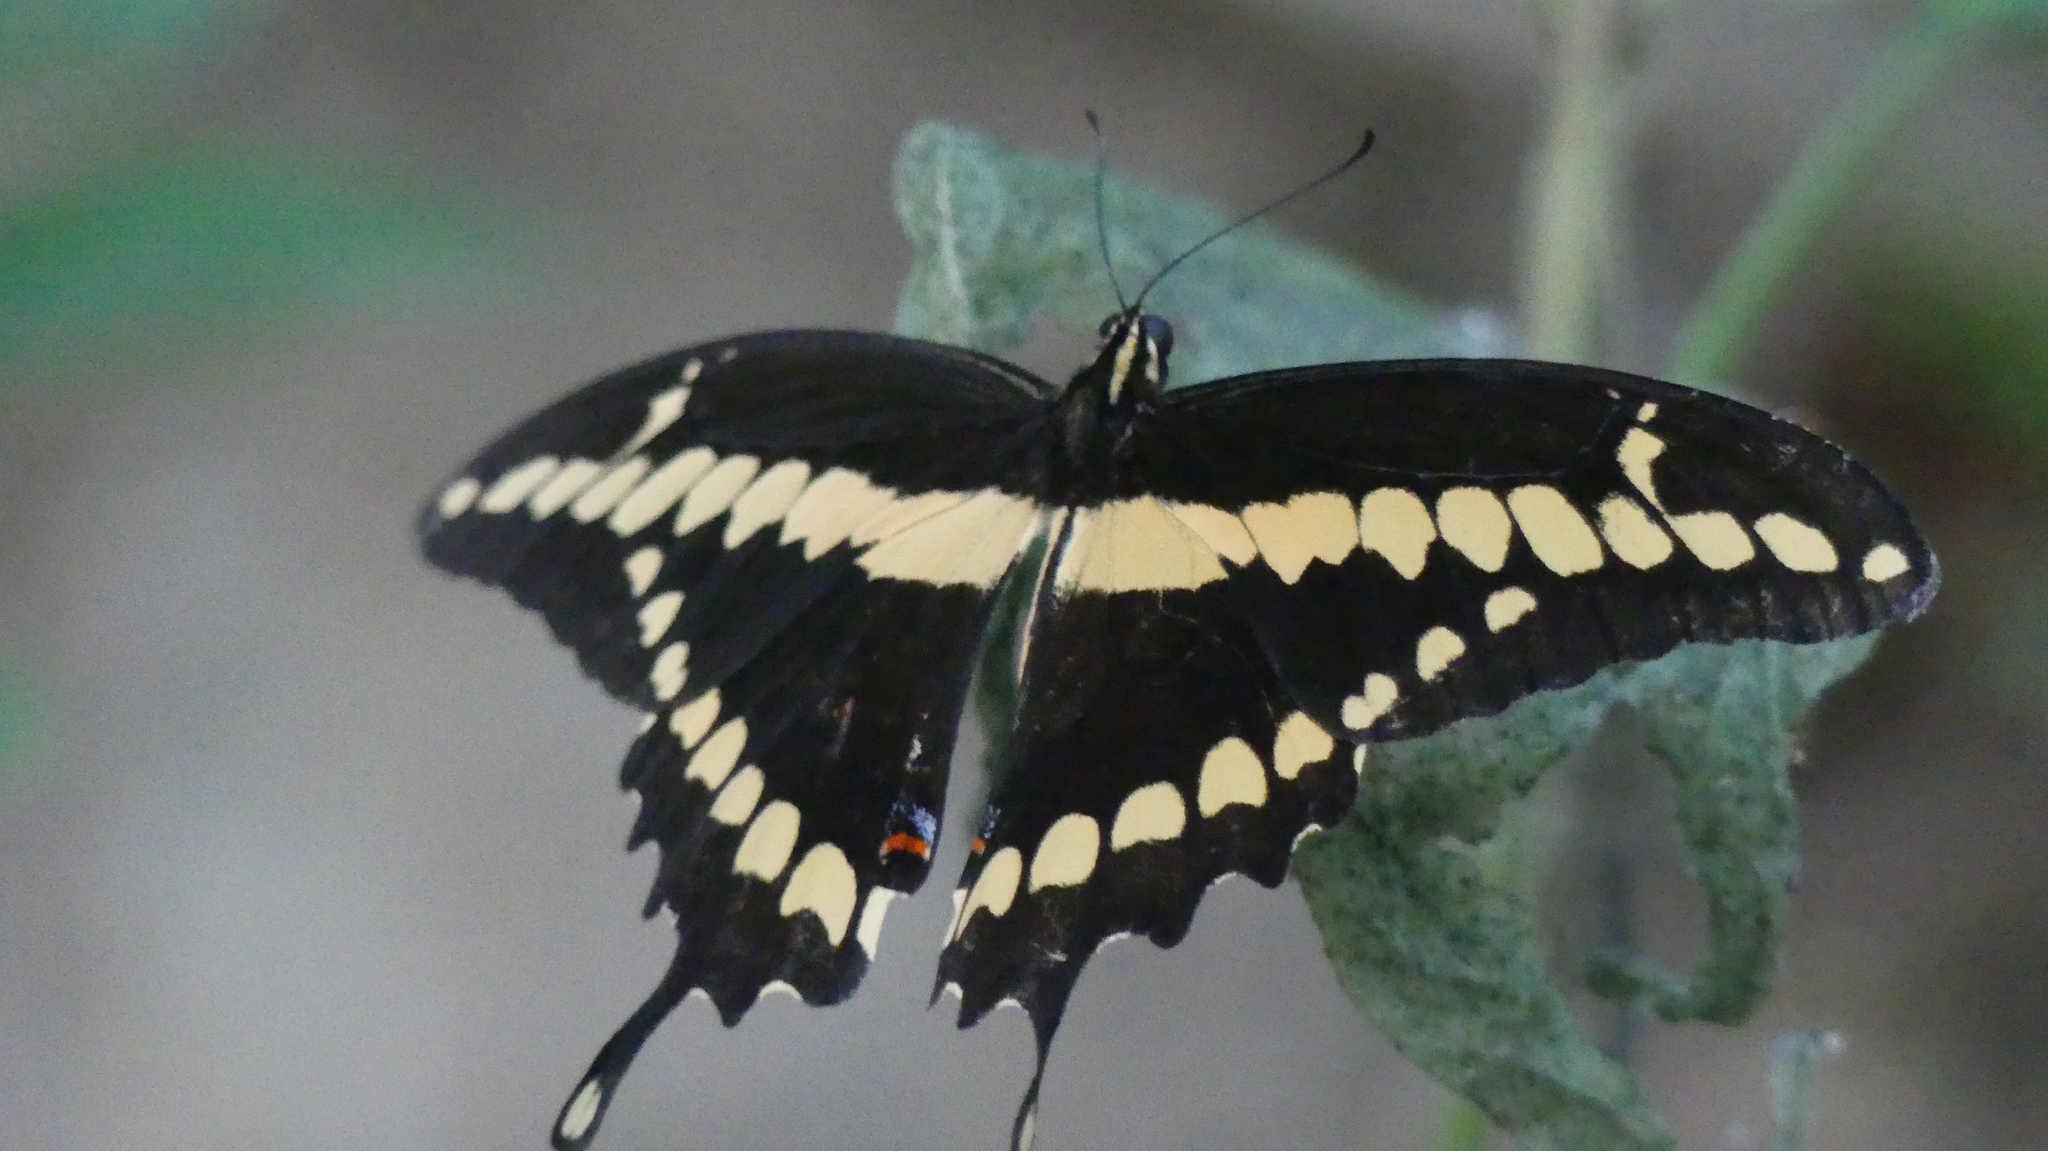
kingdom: Animalia
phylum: Arthropoda
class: Insecta
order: Lepidoptera
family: Papilionidae
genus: Papilio
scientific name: Papilio rumiko
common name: Western giant swallowtail
